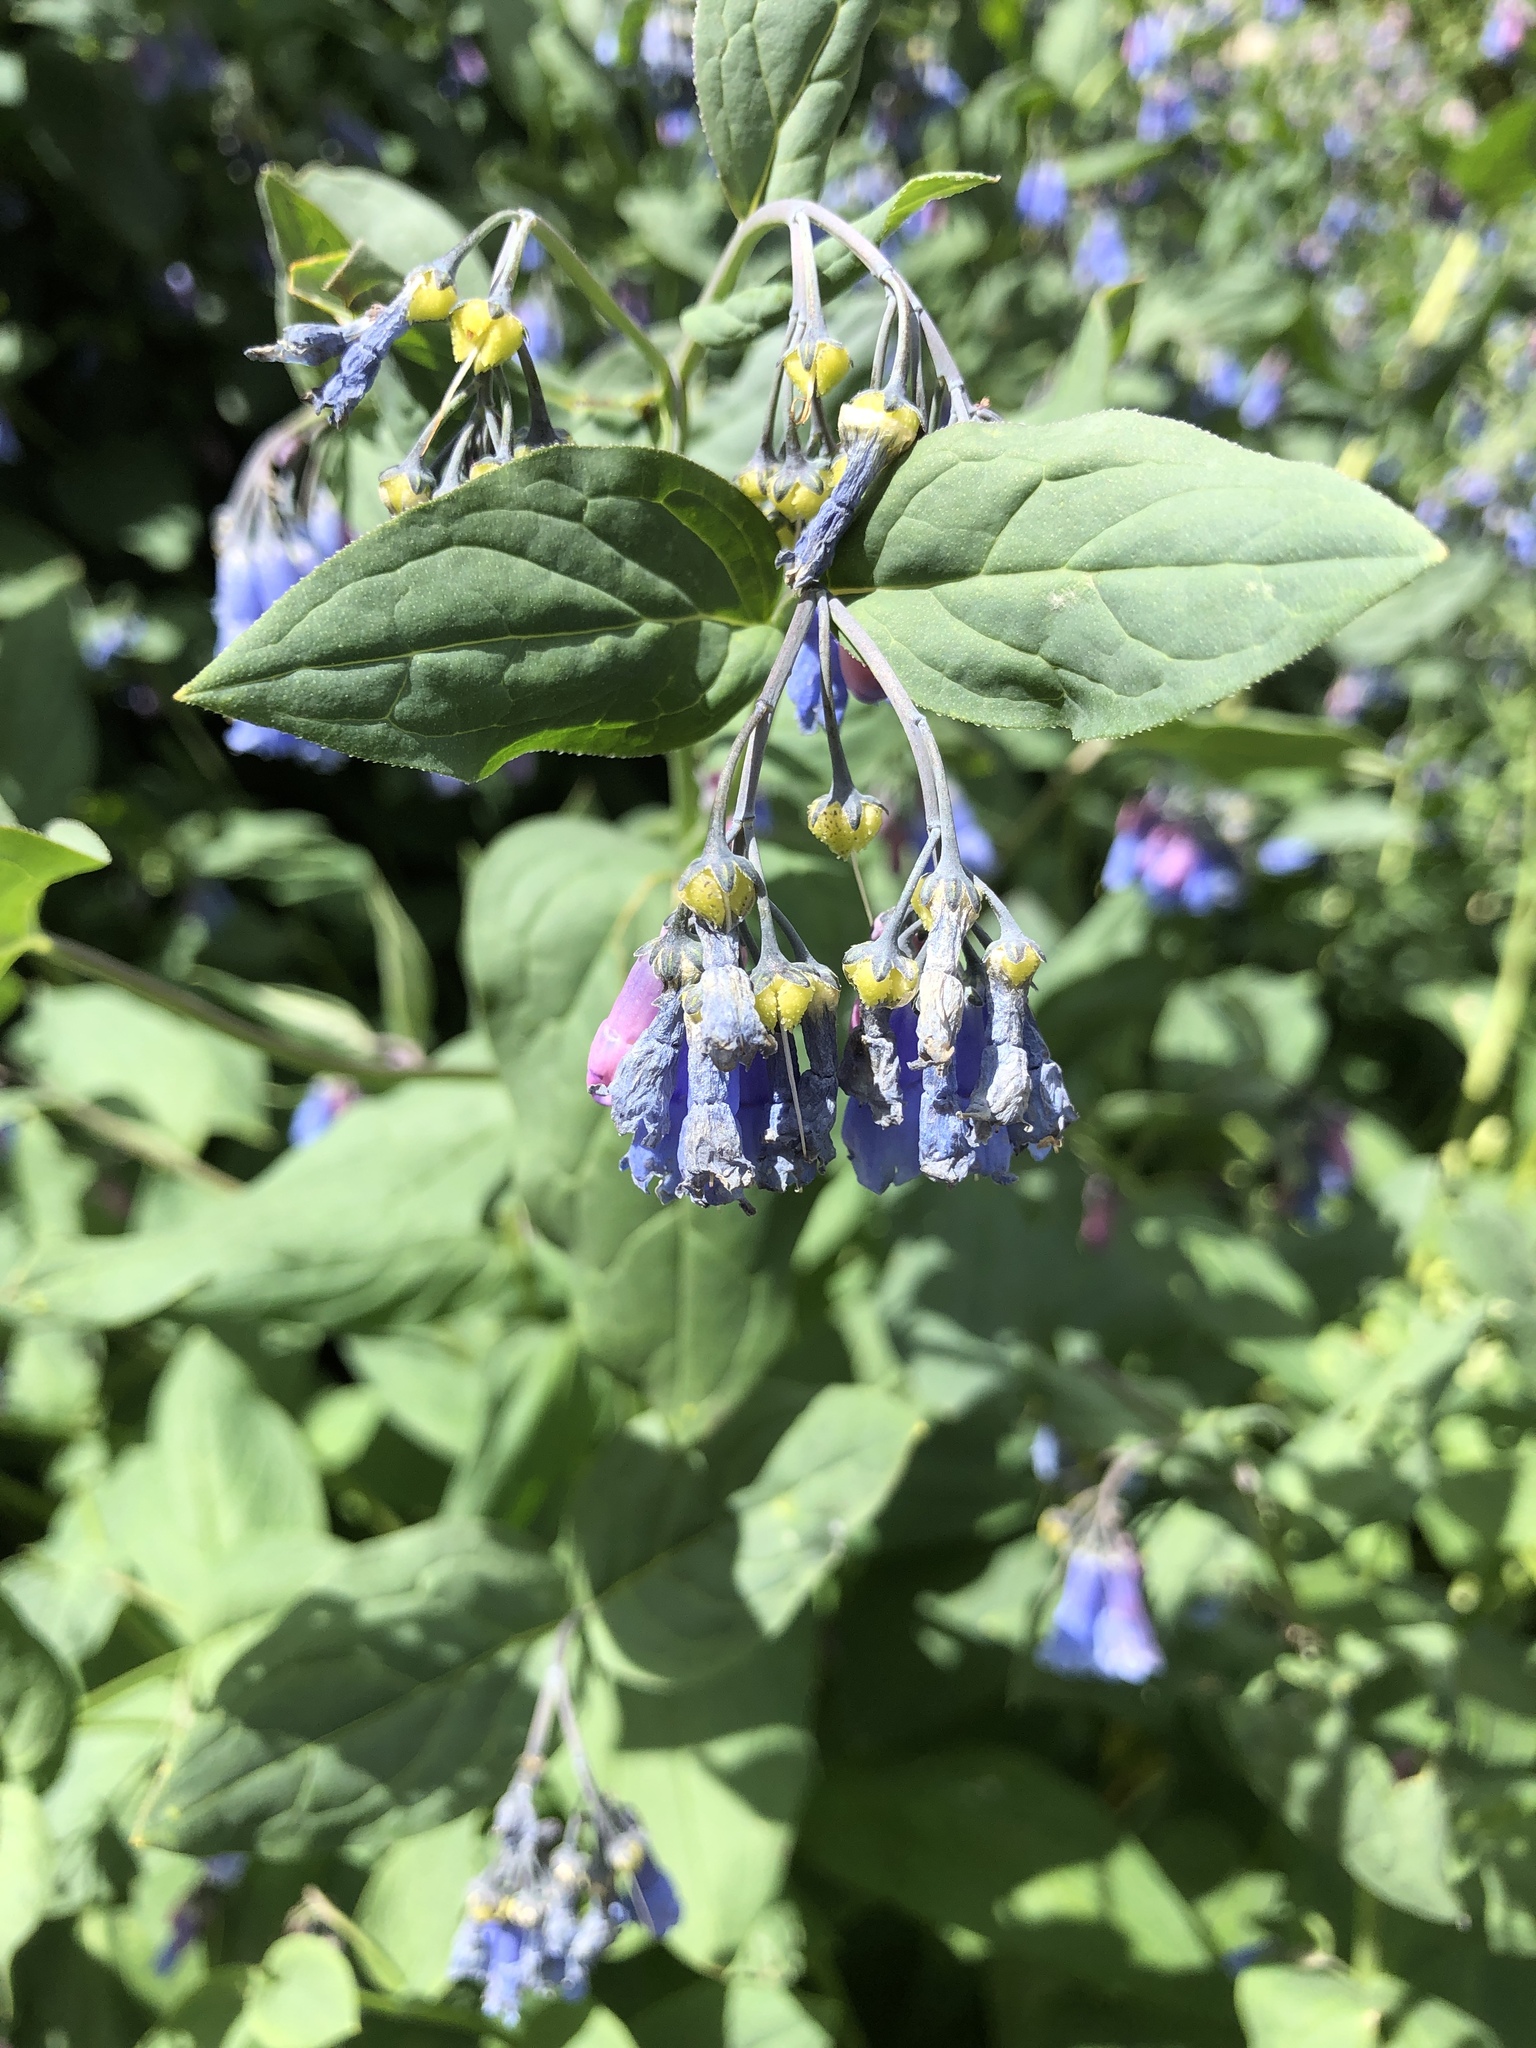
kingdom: Plantae
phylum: Tracheophyta
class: Magnoliopsida
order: Boraginales
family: Boraginaceae
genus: Mertensia
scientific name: Mertensia ciliata
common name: Tall chiming-bells
